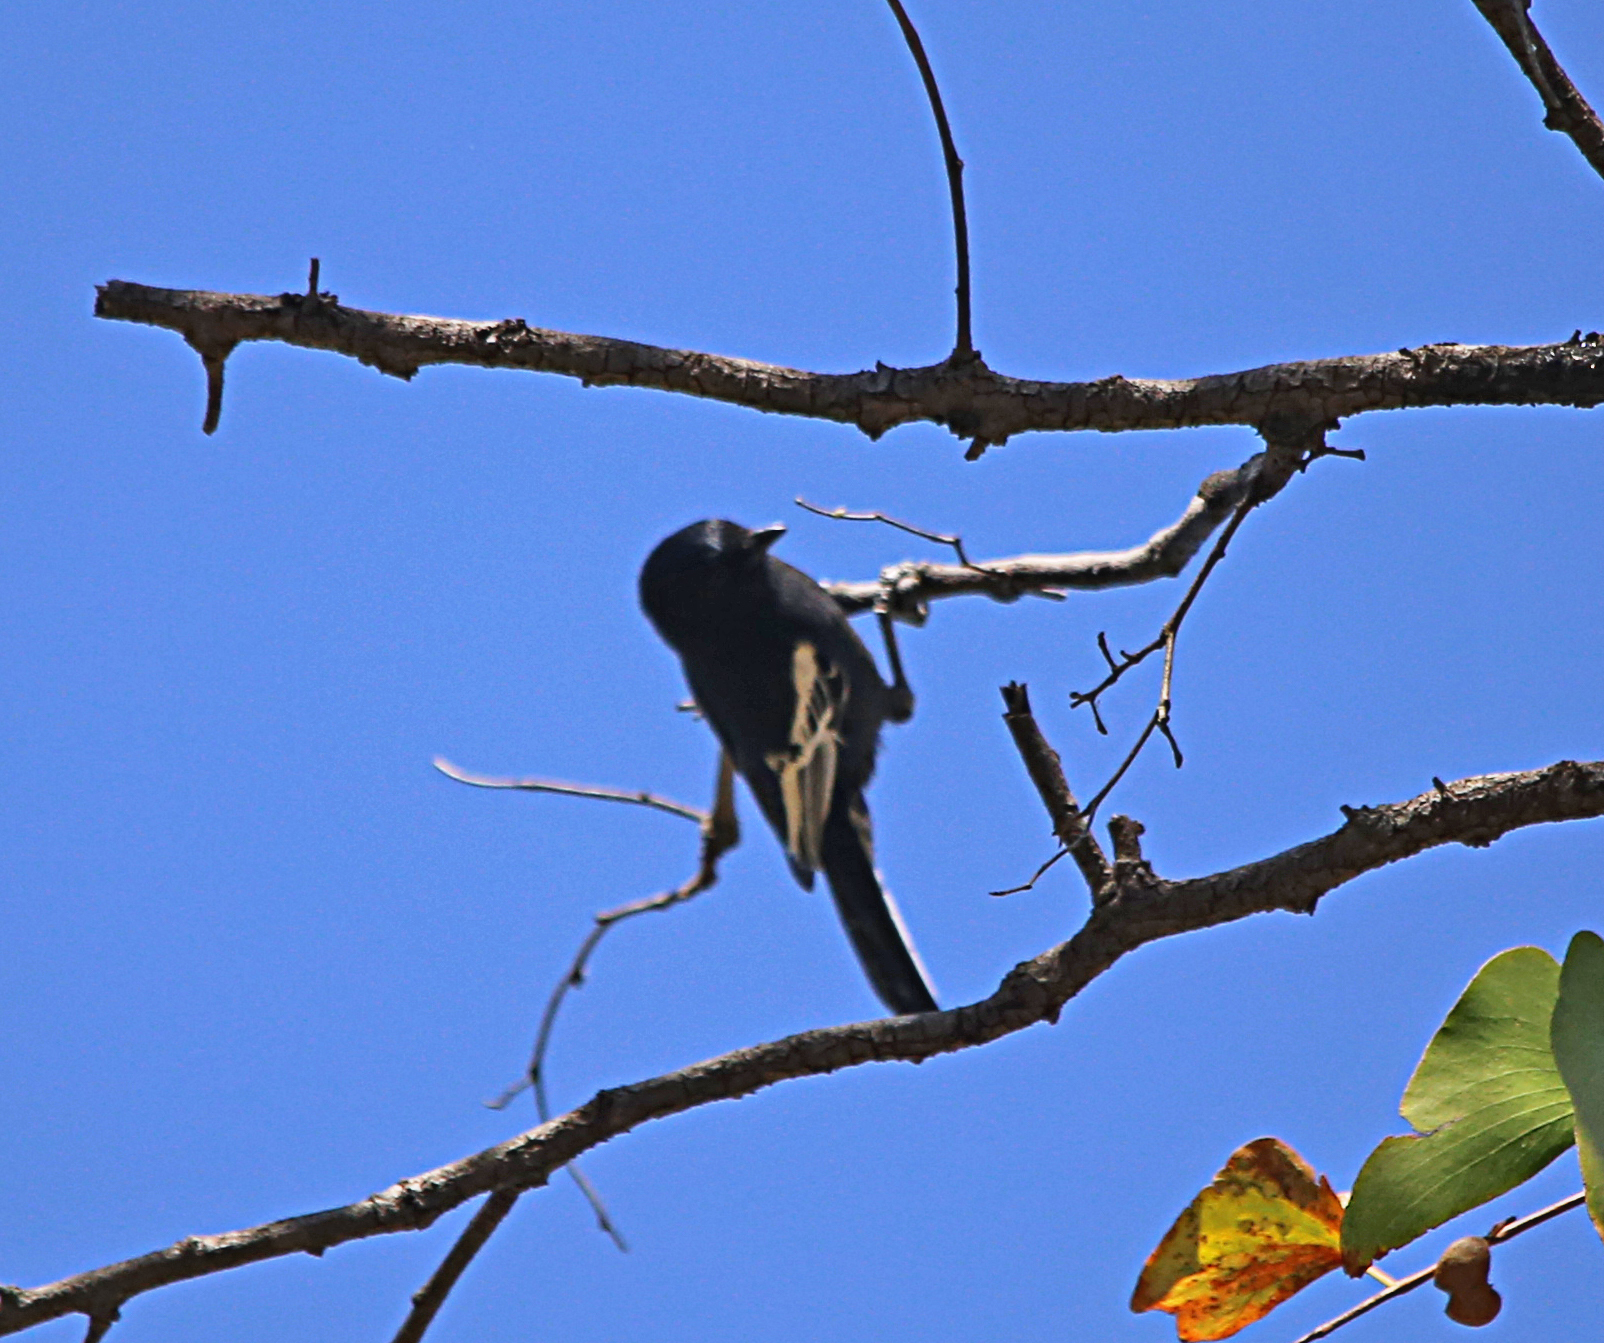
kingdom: Animalia
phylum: Chordata
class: Aves
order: Passeriformes
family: Paridae
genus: Parus
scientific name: Parus niger
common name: Southern black tit
